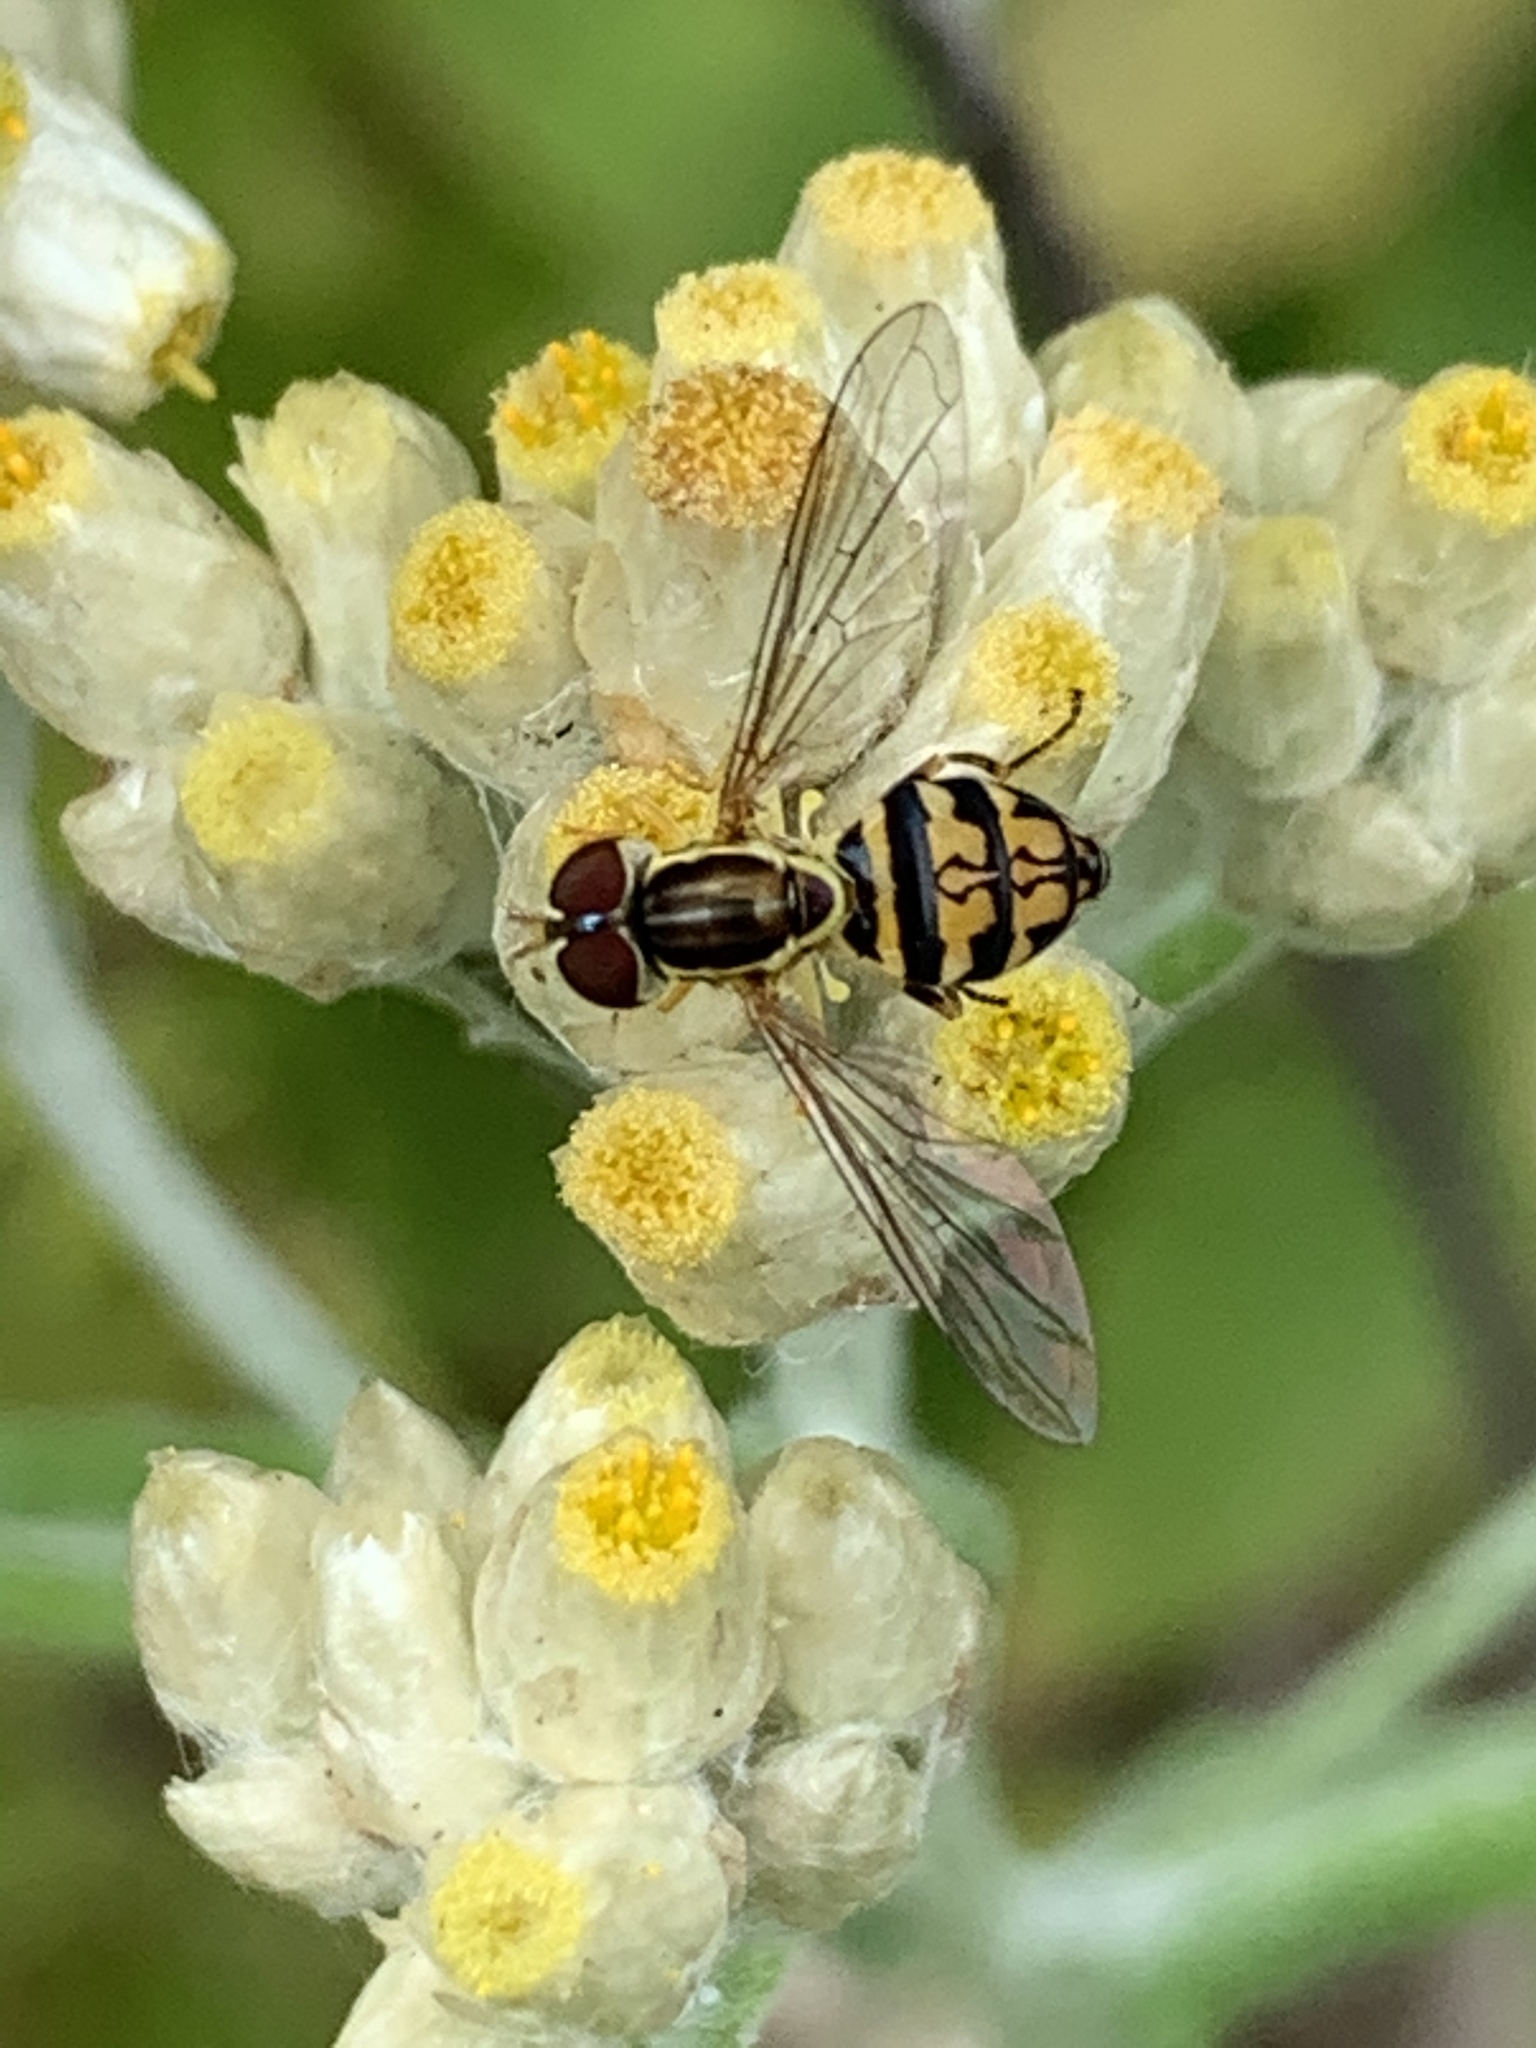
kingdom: Animalia
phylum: Arthropoda
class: Insecta
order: Diptera
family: Syrphidae
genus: Toxomerus
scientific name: Toxomerus geminatus
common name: Eastern calligrapher
